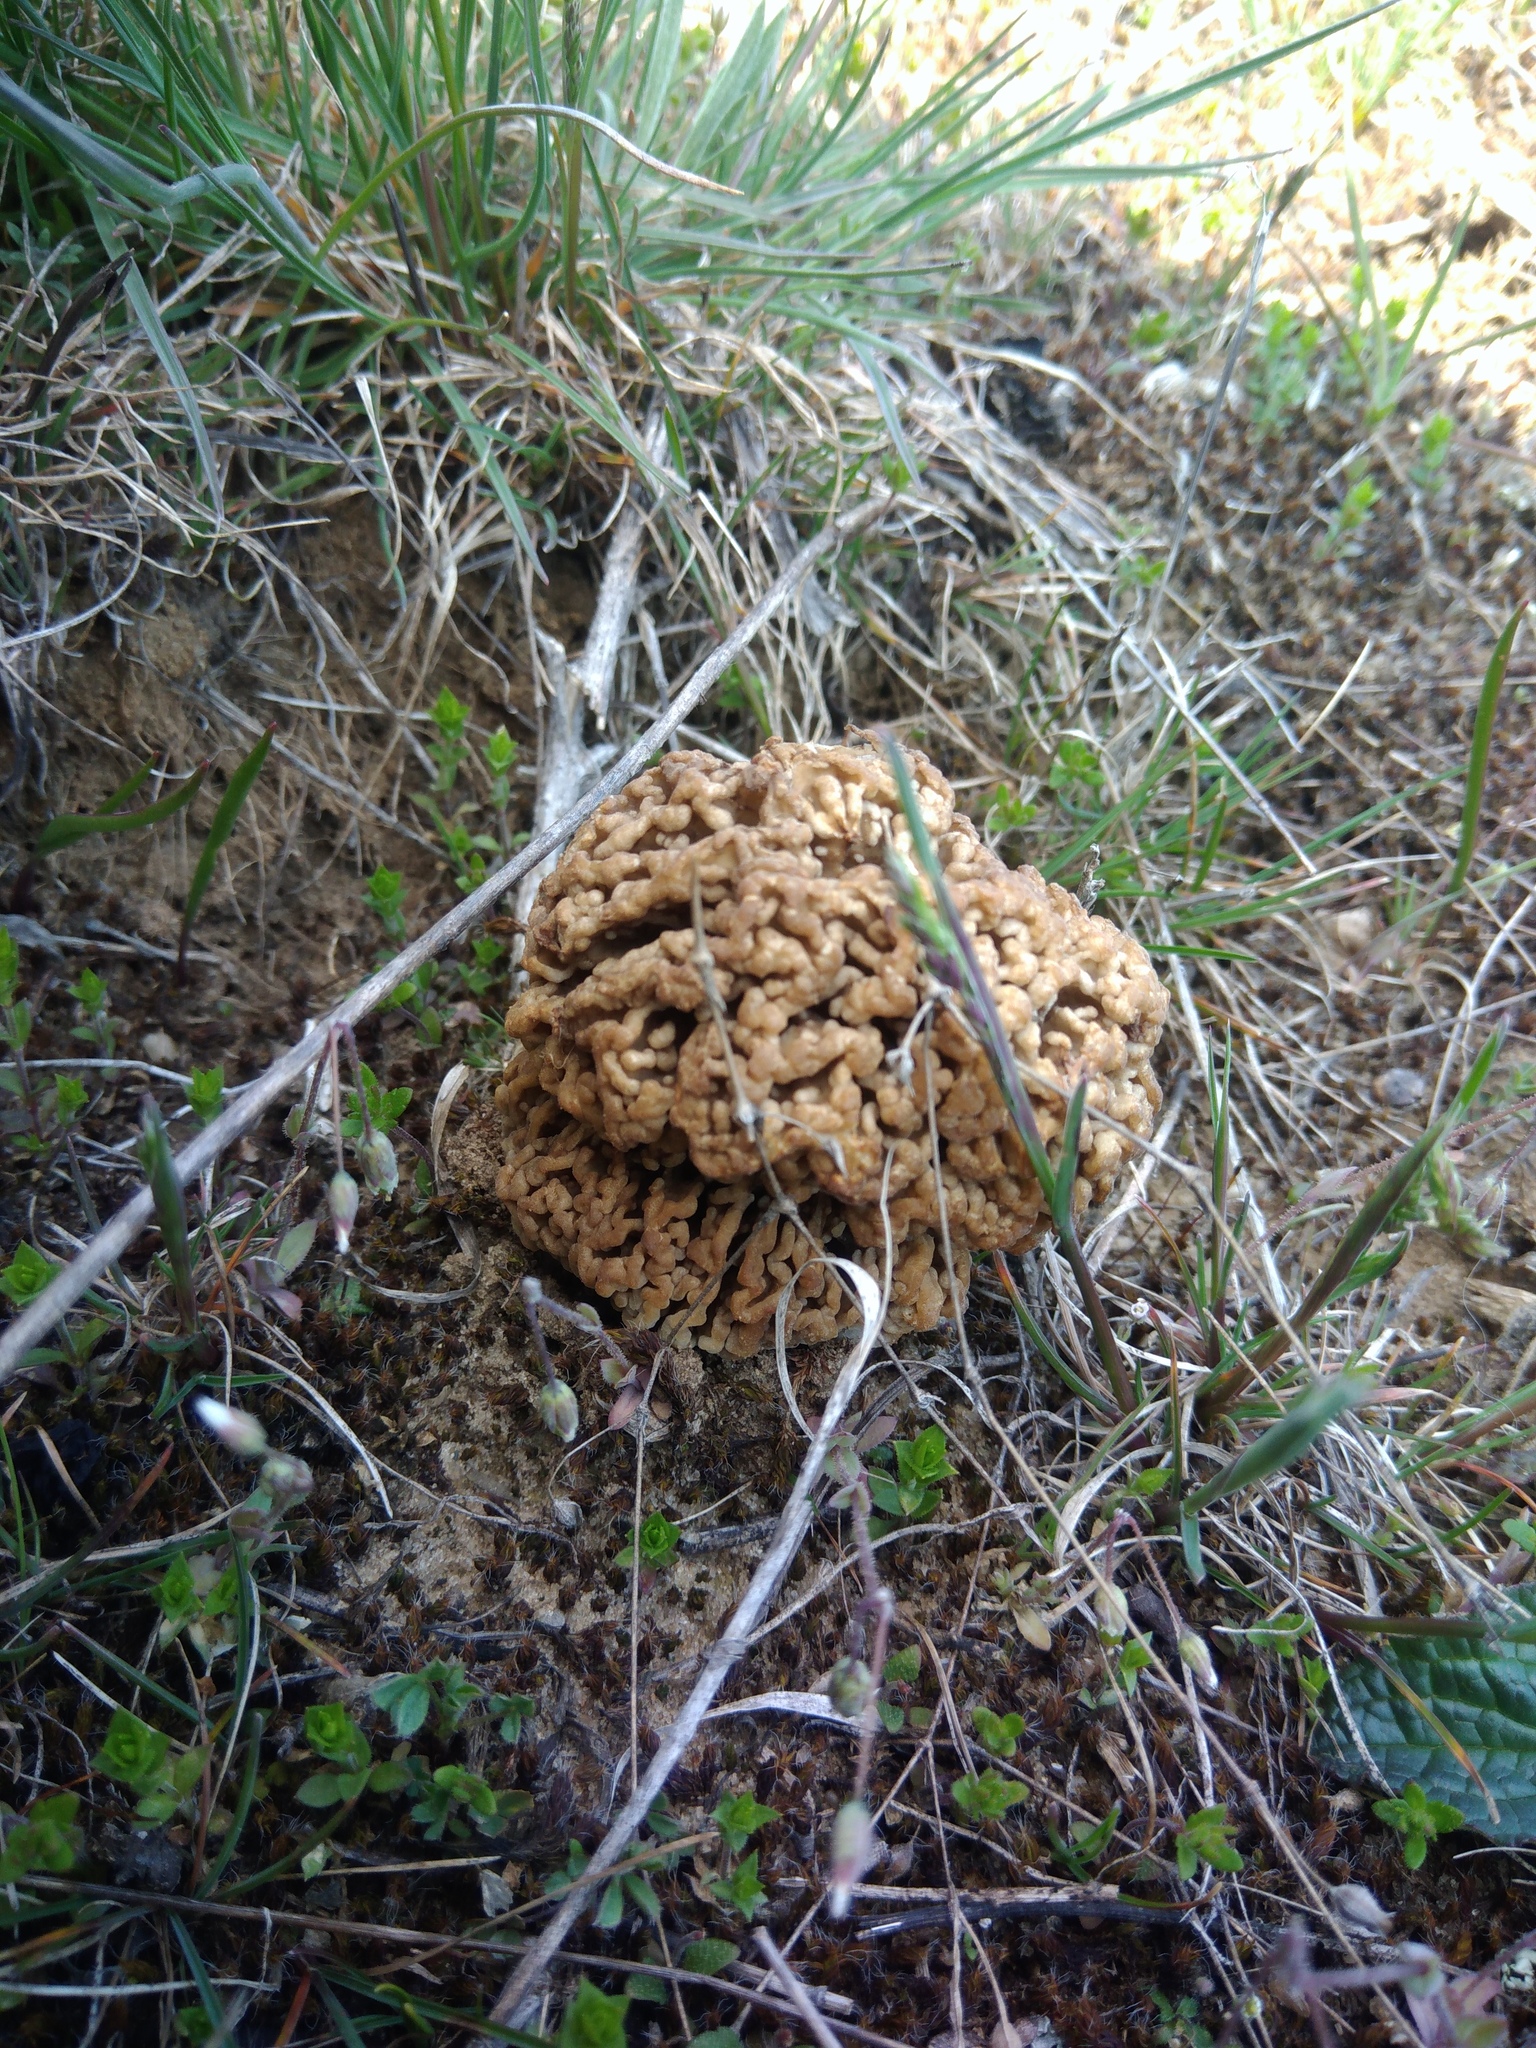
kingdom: Fungi
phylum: Ascomycota
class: Pezizomycetes
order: Pezizales
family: Morchellaceae
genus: Morchella
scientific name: Morchella steppicola
